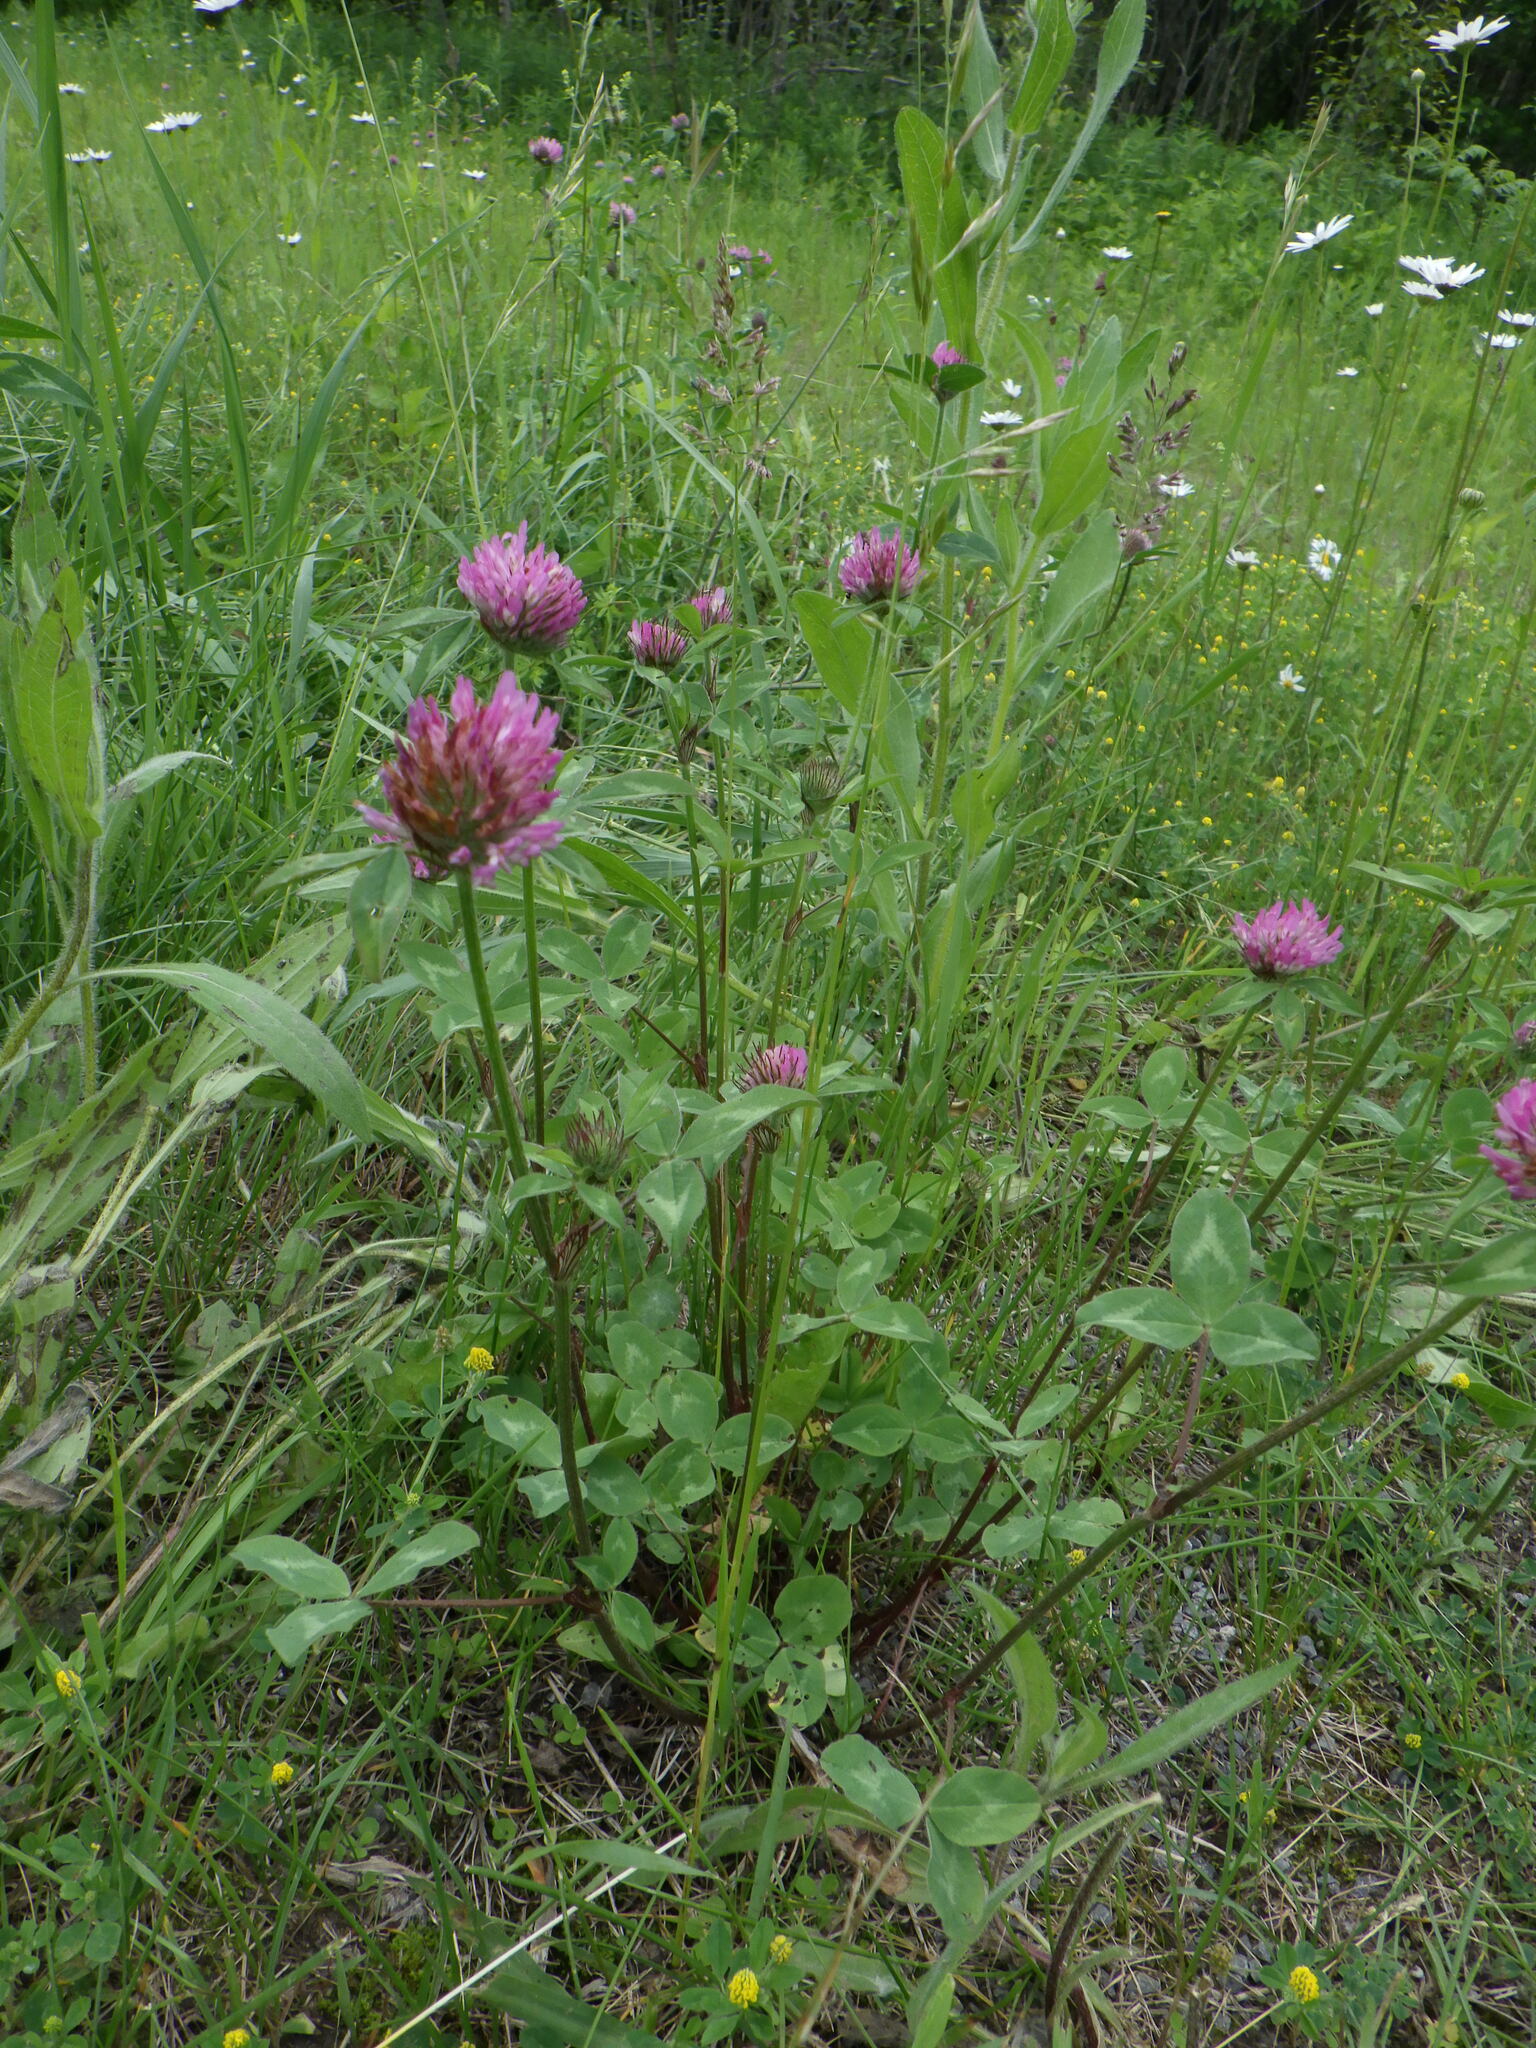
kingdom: Plantae
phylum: Tracheophyta
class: Magnoliopsida
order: Fabales
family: Fabaceae
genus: Trifolium
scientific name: Trifolium pratense
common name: Red clover
